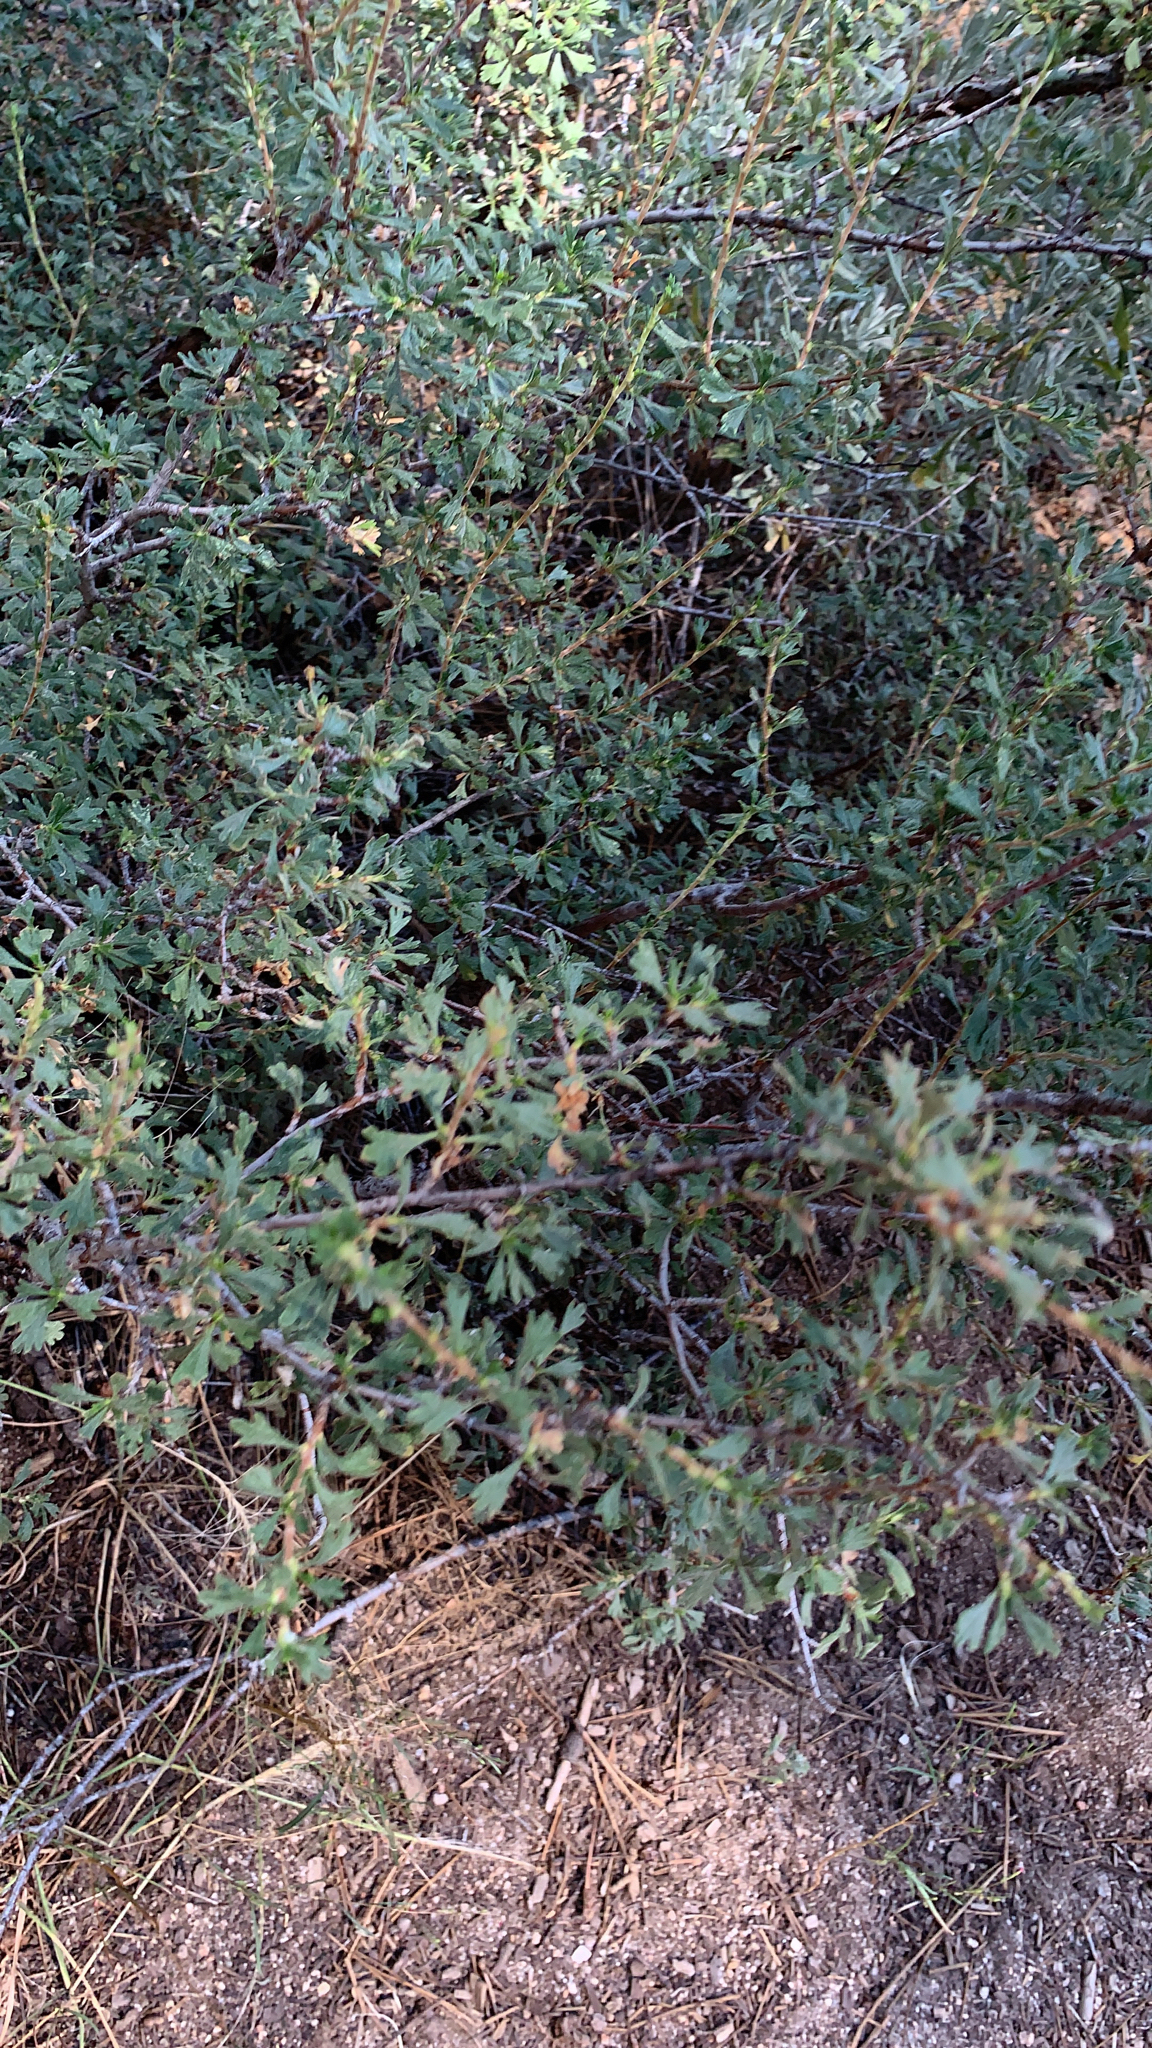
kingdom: Plantae
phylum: Tracheophyta
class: Magnoliopsida
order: Rosales
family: Rosaceae
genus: Purshia
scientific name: Purshia tridentata
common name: Antelope bitterbrush
